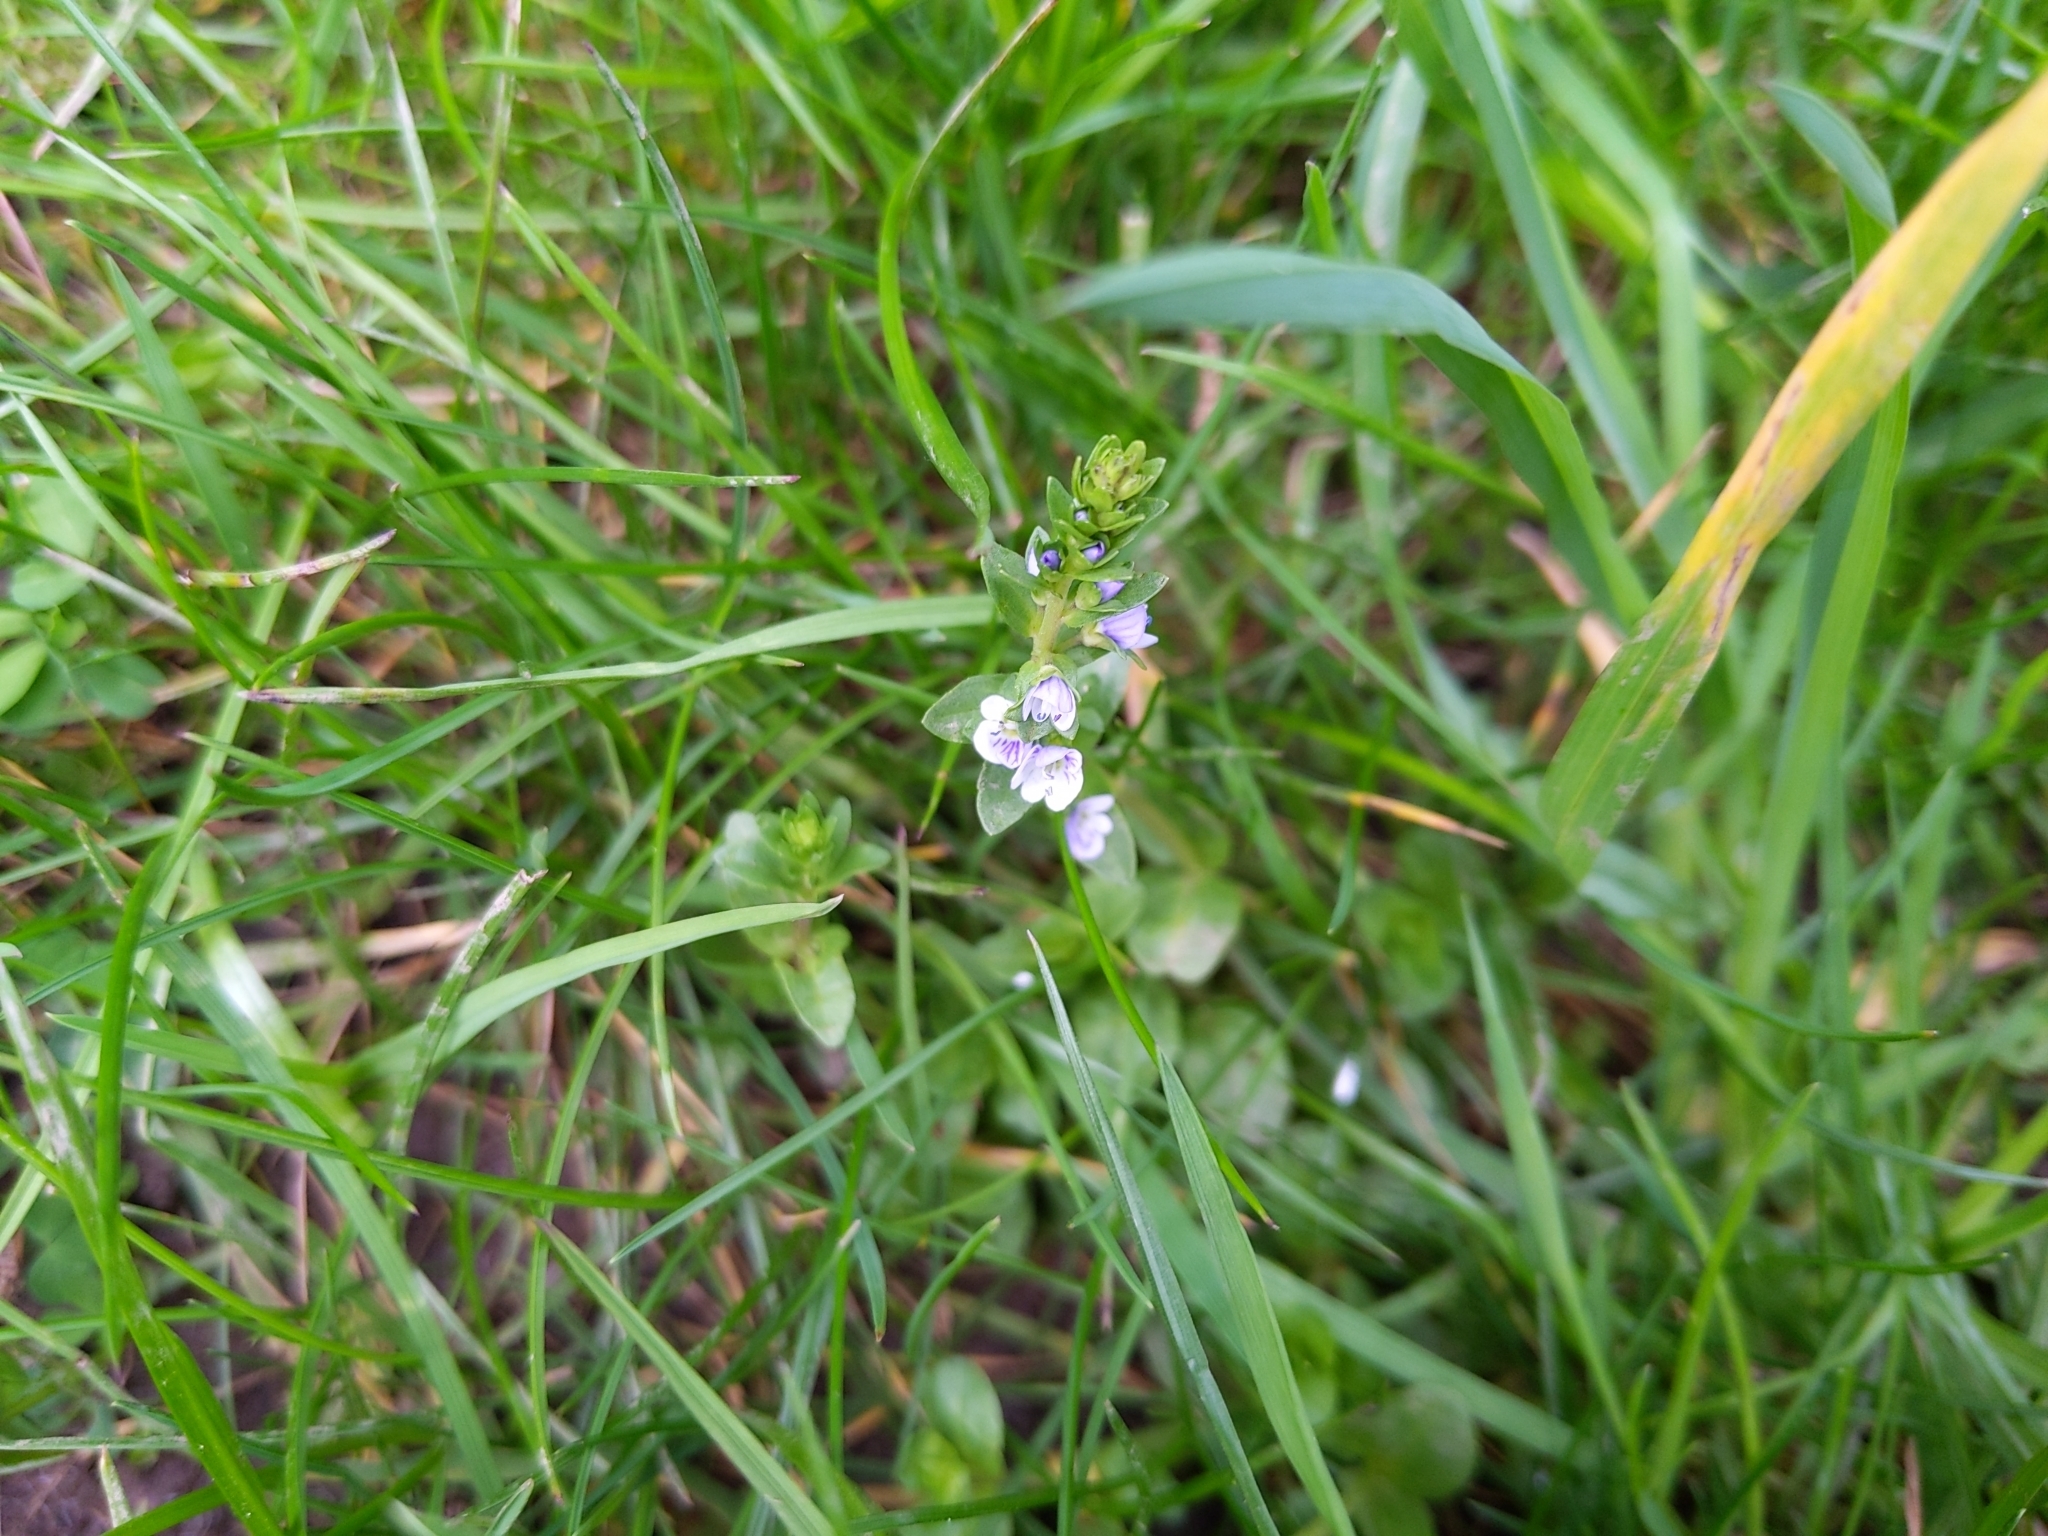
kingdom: Plantae
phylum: Tracheophyta
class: Magnoliopsida
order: Lamiales
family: Plantaginaceae
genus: Veronica
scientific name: Veronica serpyllifolia
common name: Thyme-leaved speedwell
